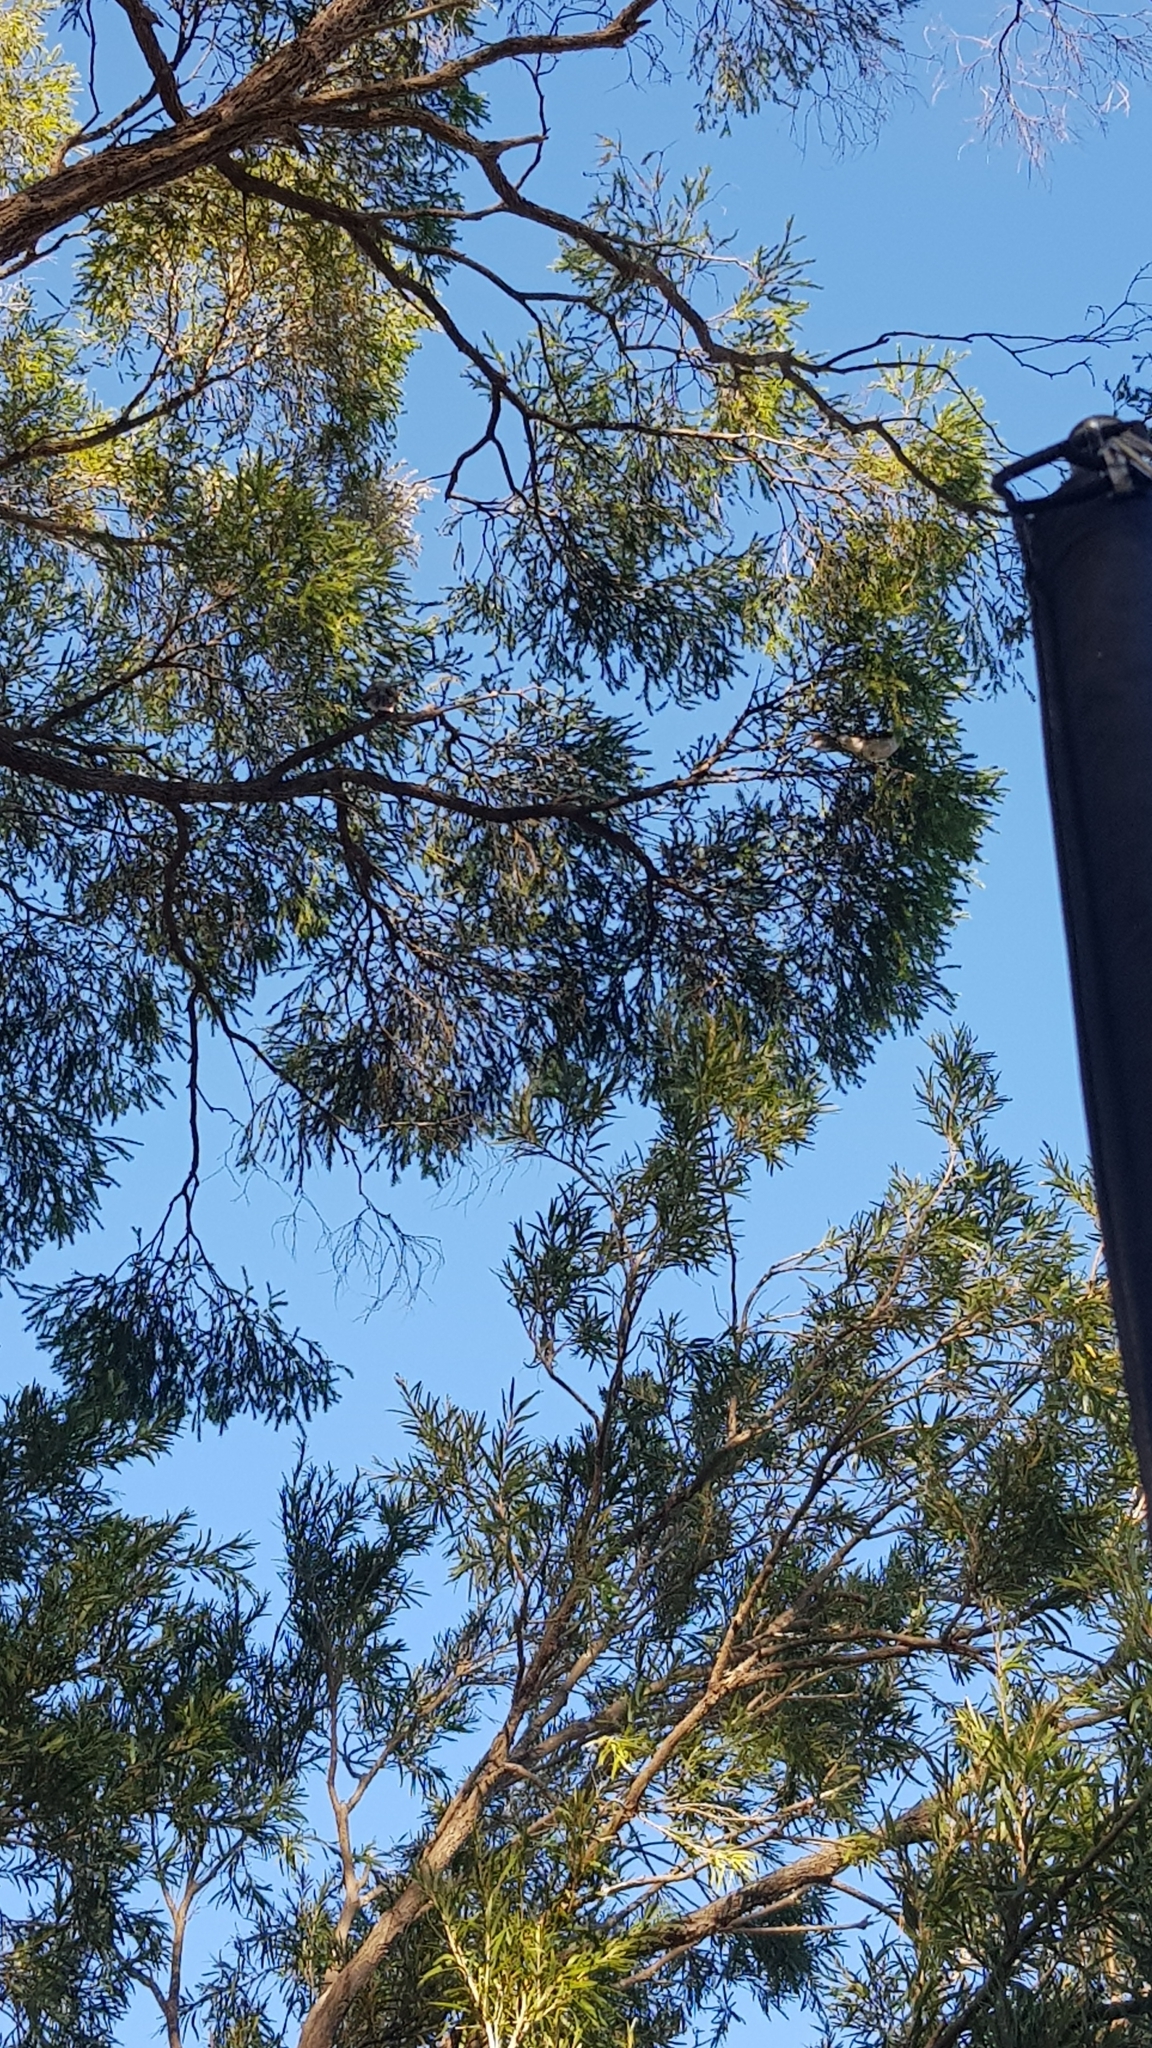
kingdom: Animalia
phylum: Chordata
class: Aves
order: Passeriformes
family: Meliphagidae
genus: Manorina
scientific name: Manorina melanocephala
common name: Noisy miner
